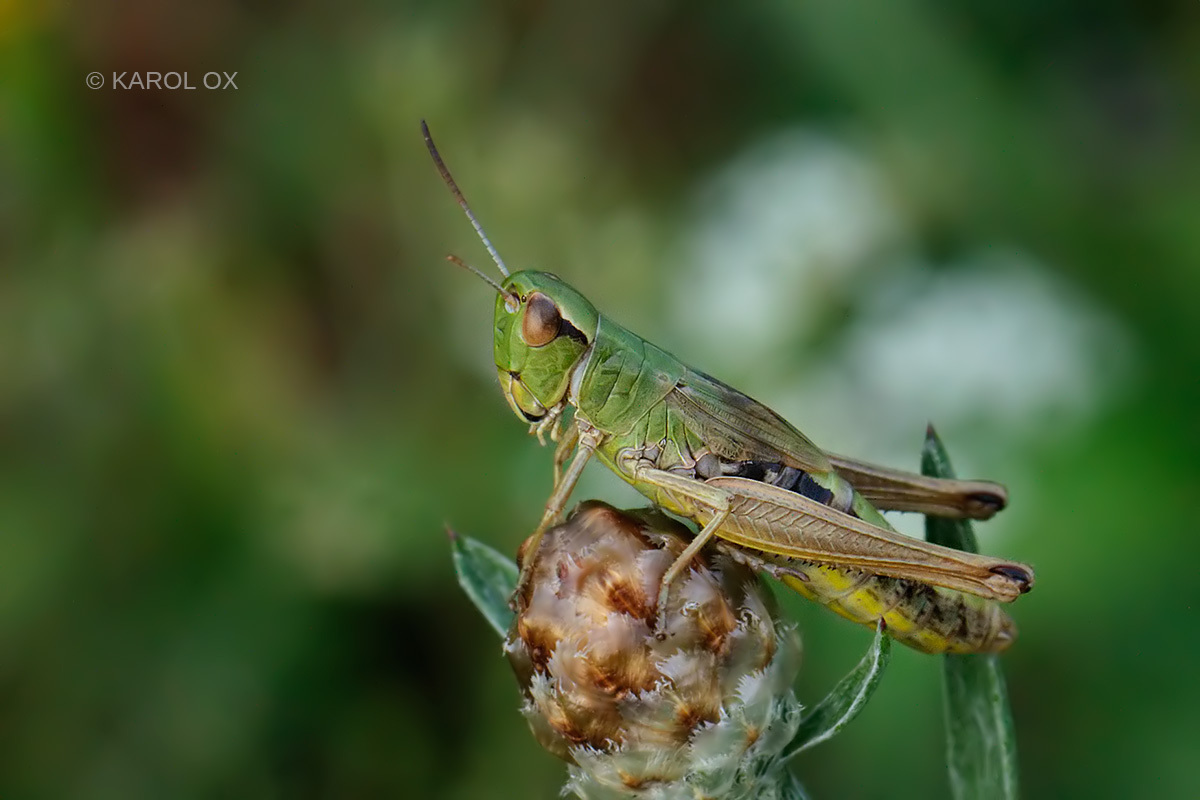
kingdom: Animalia
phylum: Arthropoda
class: Insecta
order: Orthoptera
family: Acrididae
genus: Pseudochorthippus
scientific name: Pseudochorthippus parallelus
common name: Meadow grasshopper
